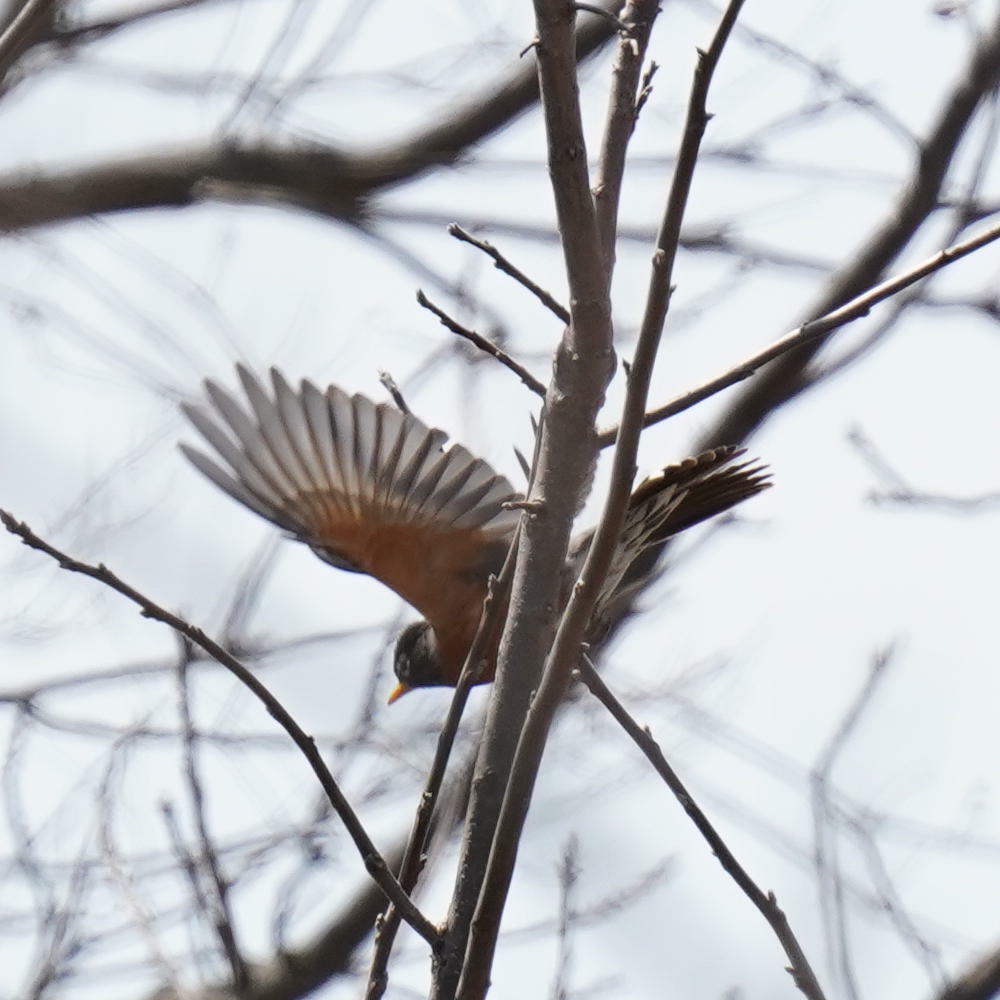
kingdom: Animalia
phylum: Chordata
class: Aves
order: Passeriformes
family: Turdidae
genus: Turdus
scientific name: Turdus migratorius
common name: American robin
